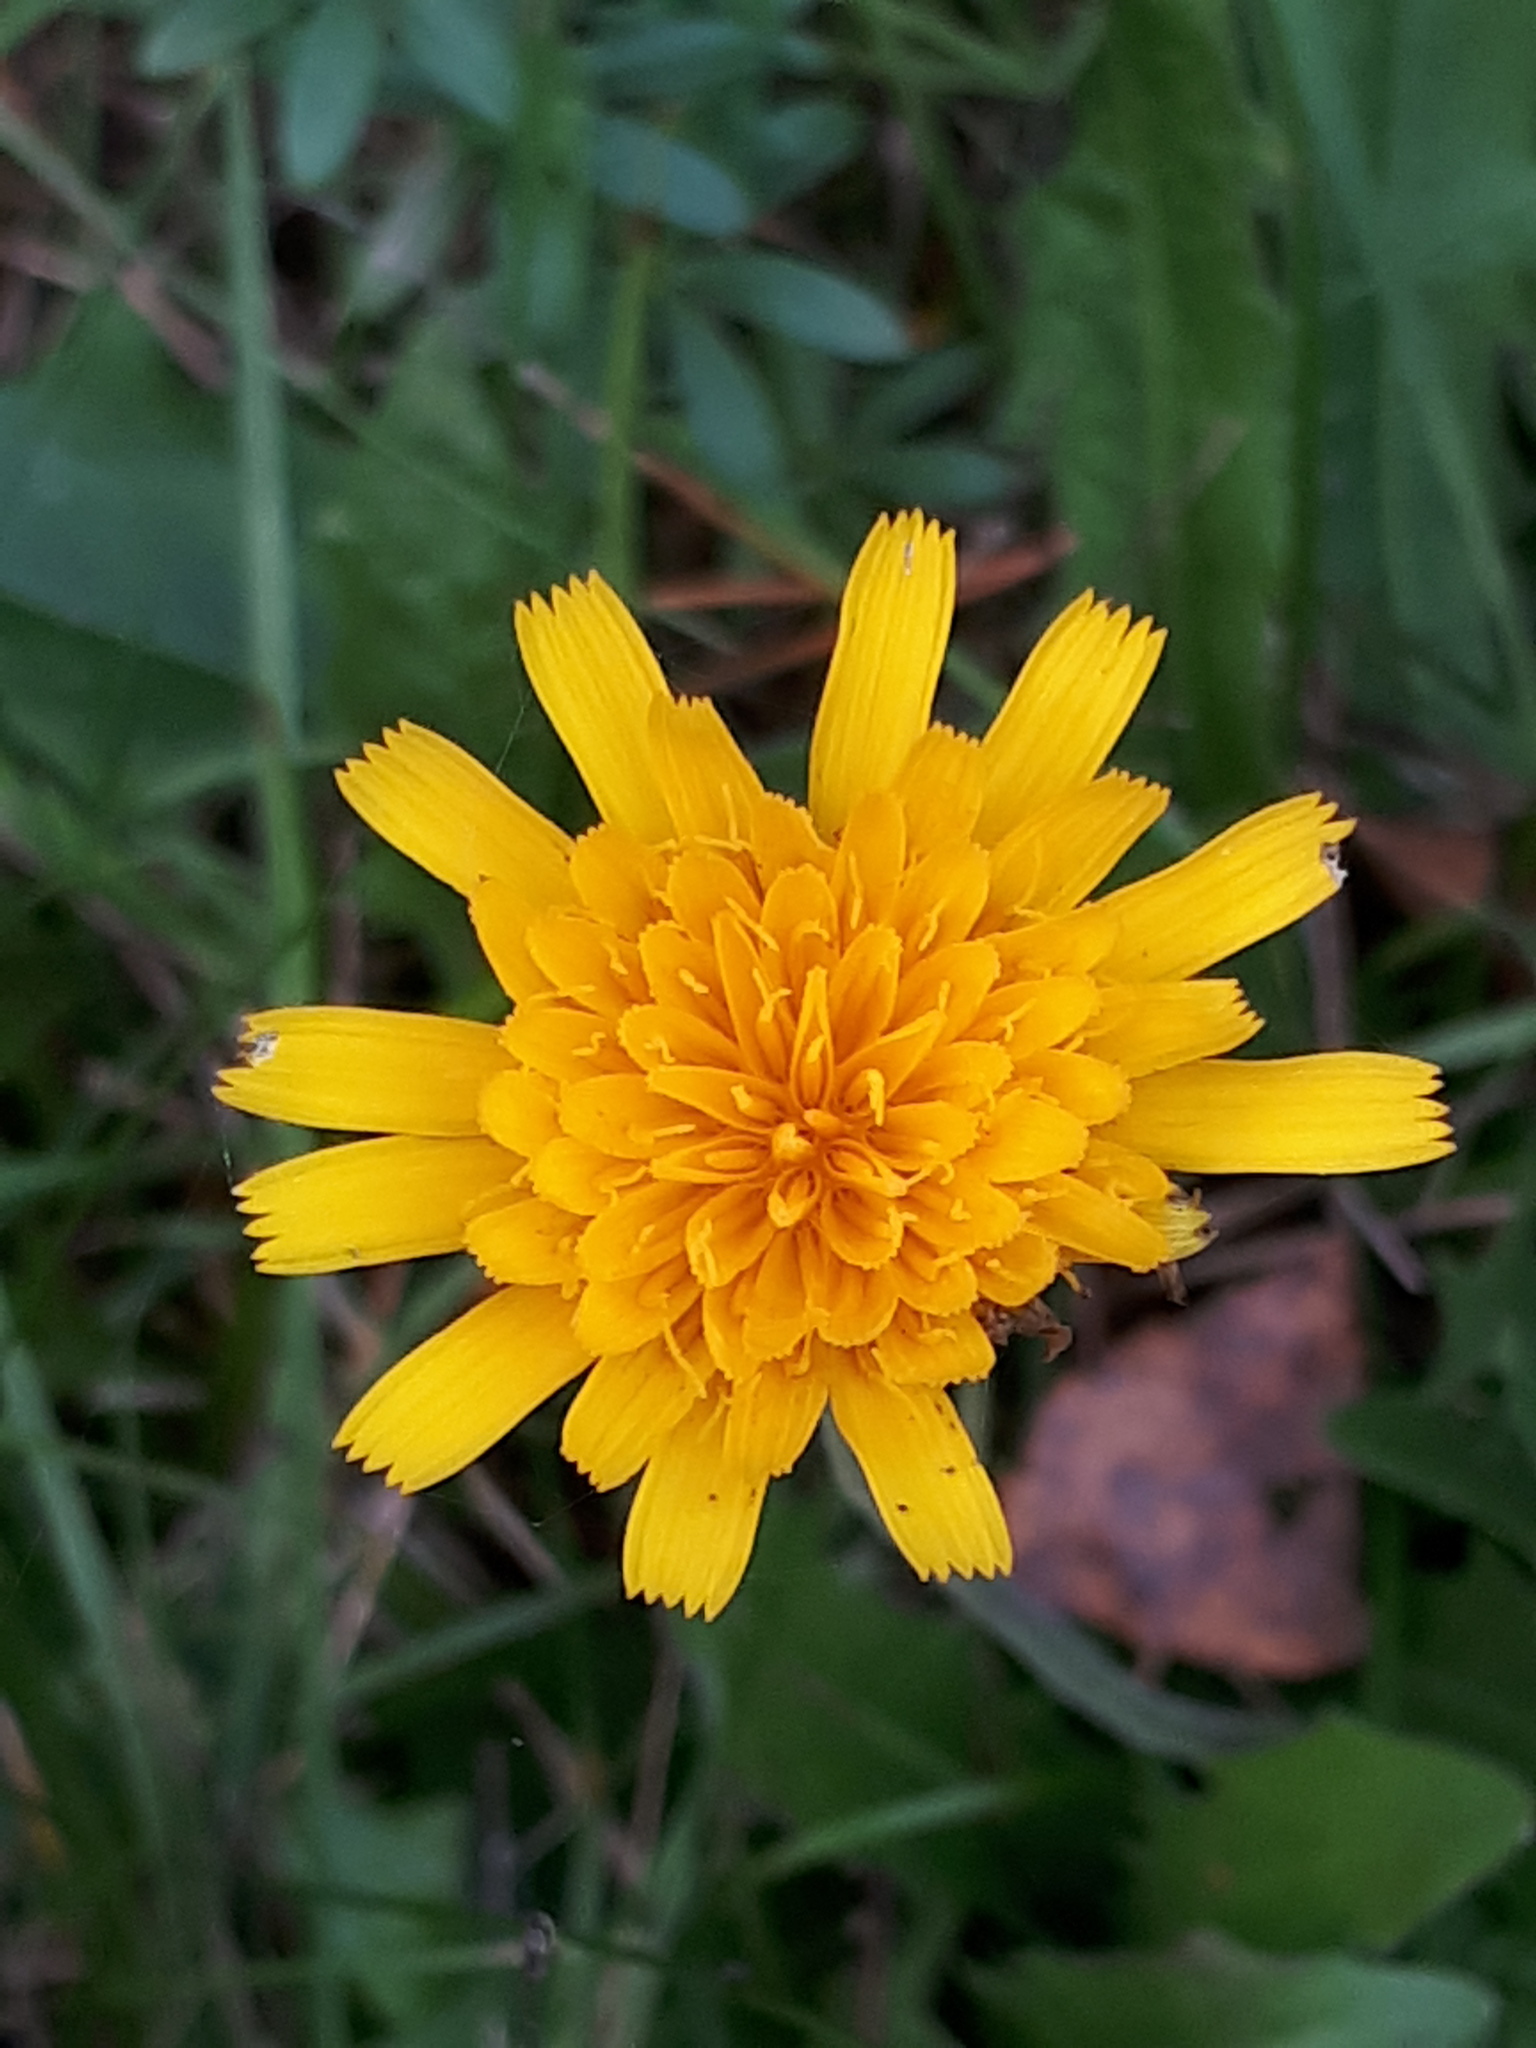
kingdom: Plantae
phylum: Tracheophyta
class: Magnoliopsida
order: Asterales
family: Asteraceae
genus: Leontodon
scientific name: Leontodon hispidus
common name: Rough hawkbit
